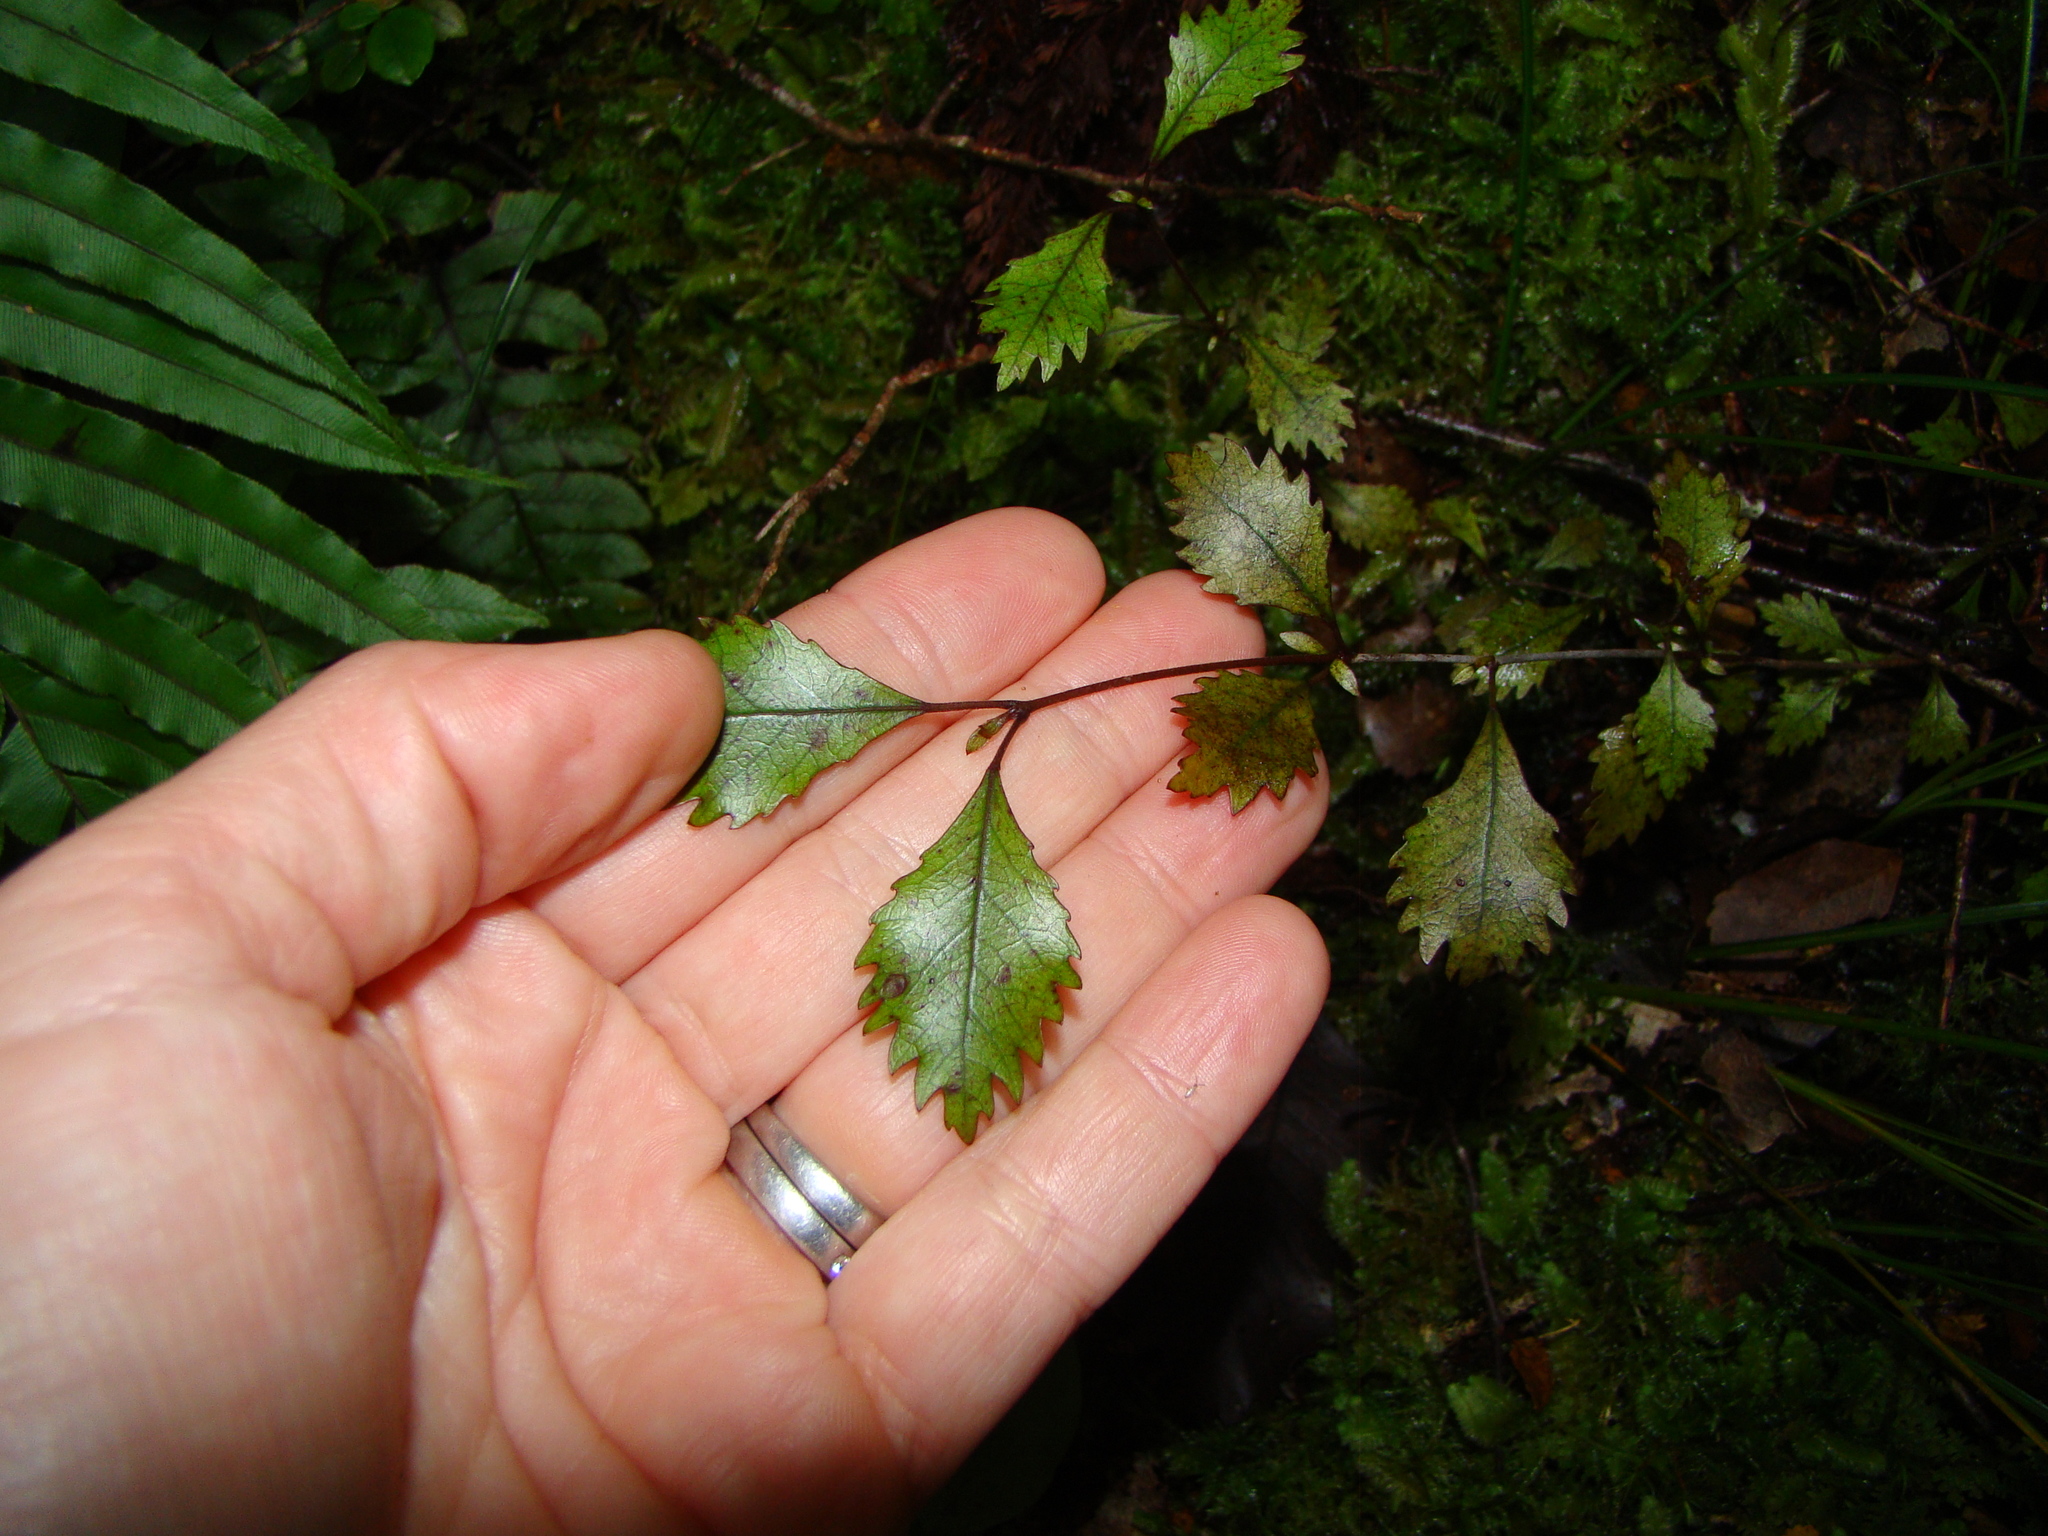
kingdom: Plantae
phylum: Tracheophyta
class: Magnoliopsida
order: Oxalidales
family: Cunoniaceae
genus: Pterophylla
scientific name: Pterophylla racemosa
